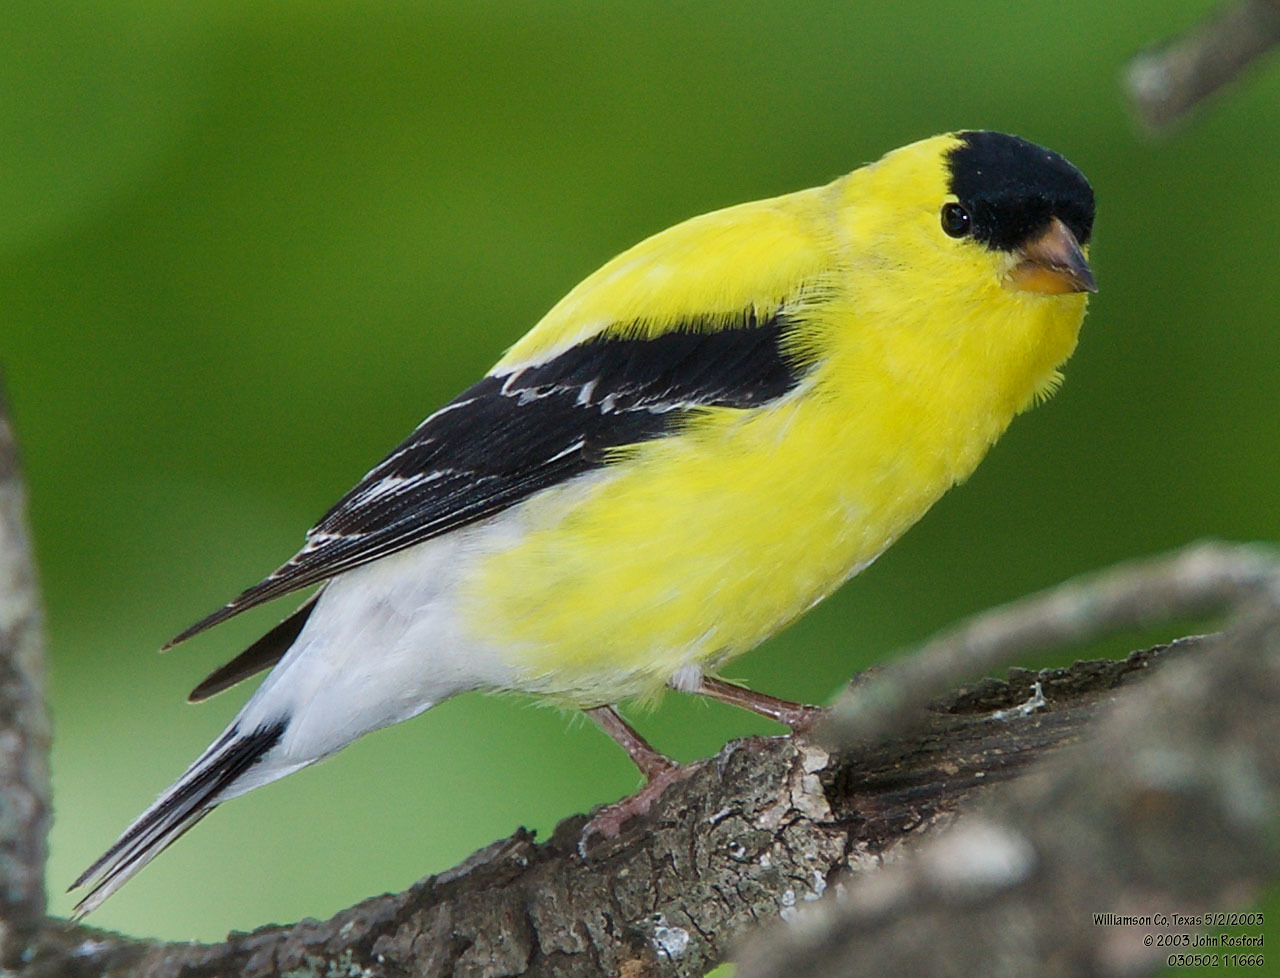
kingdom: Animalia
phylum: Chordata
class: Aves
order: Passeriformes
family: Fringillidae
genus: Spinus
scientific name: Spinus tristis
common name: American goldfinch
